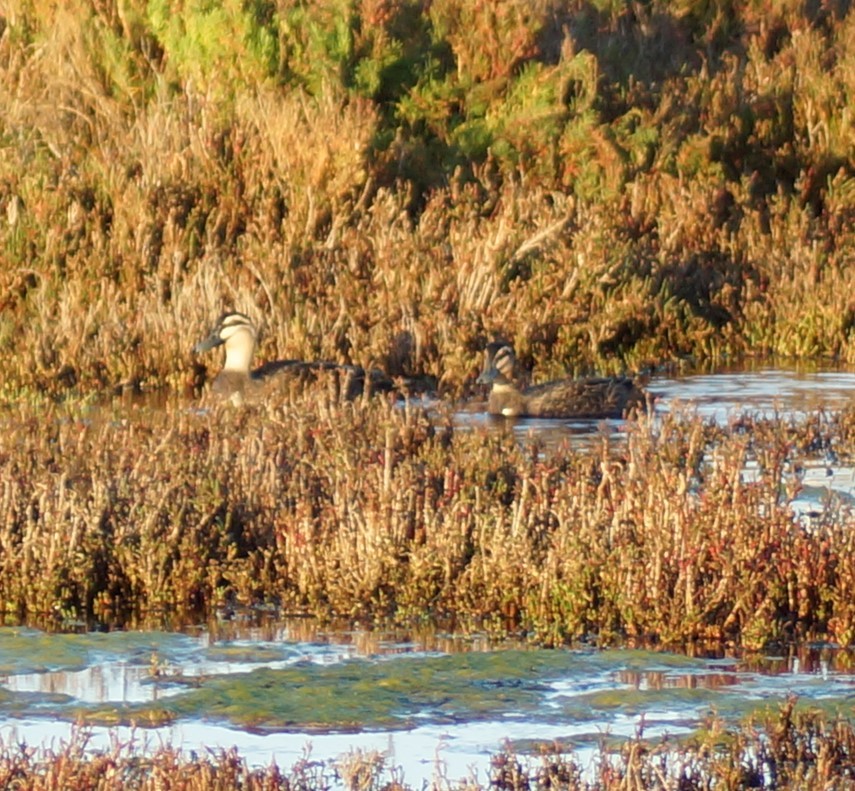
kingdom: Animalia
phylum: Chordata
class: Aves
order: Anseriformes
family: Anatidae
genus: Anas
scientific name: Anas superciliosa
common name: Pacific black duck
